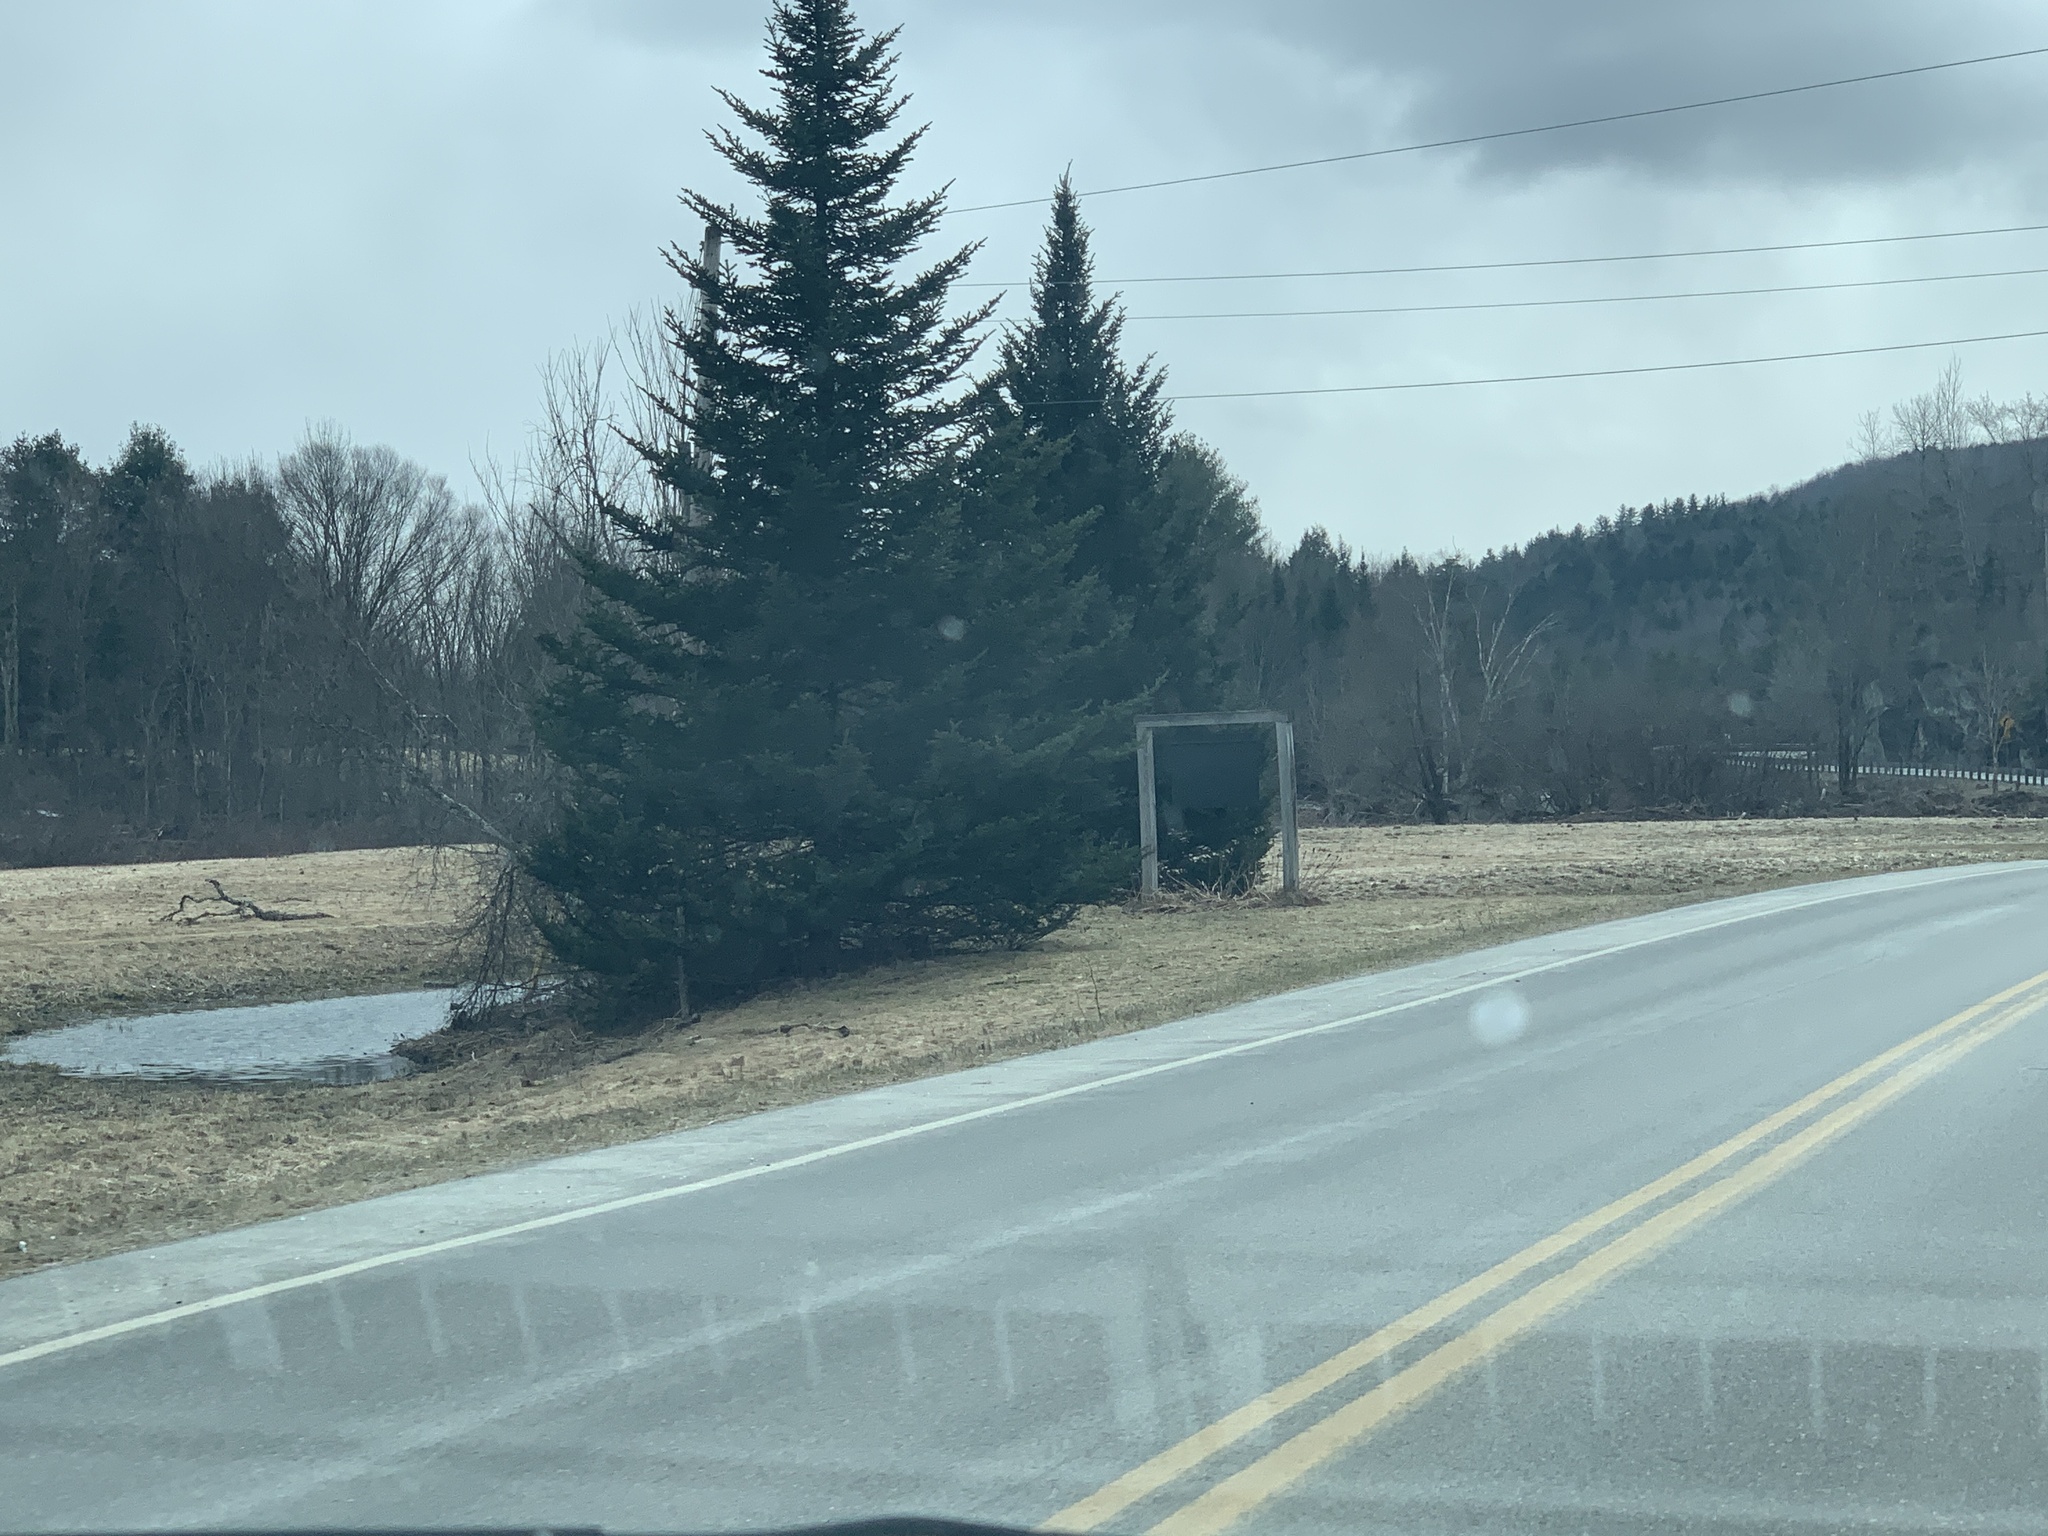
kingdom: Plantae
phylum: Tracheophyta
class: Pinopsida
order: Pinales
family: Pinaceae
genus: Abies
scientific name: Abies balsamea
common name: Balsam fir
